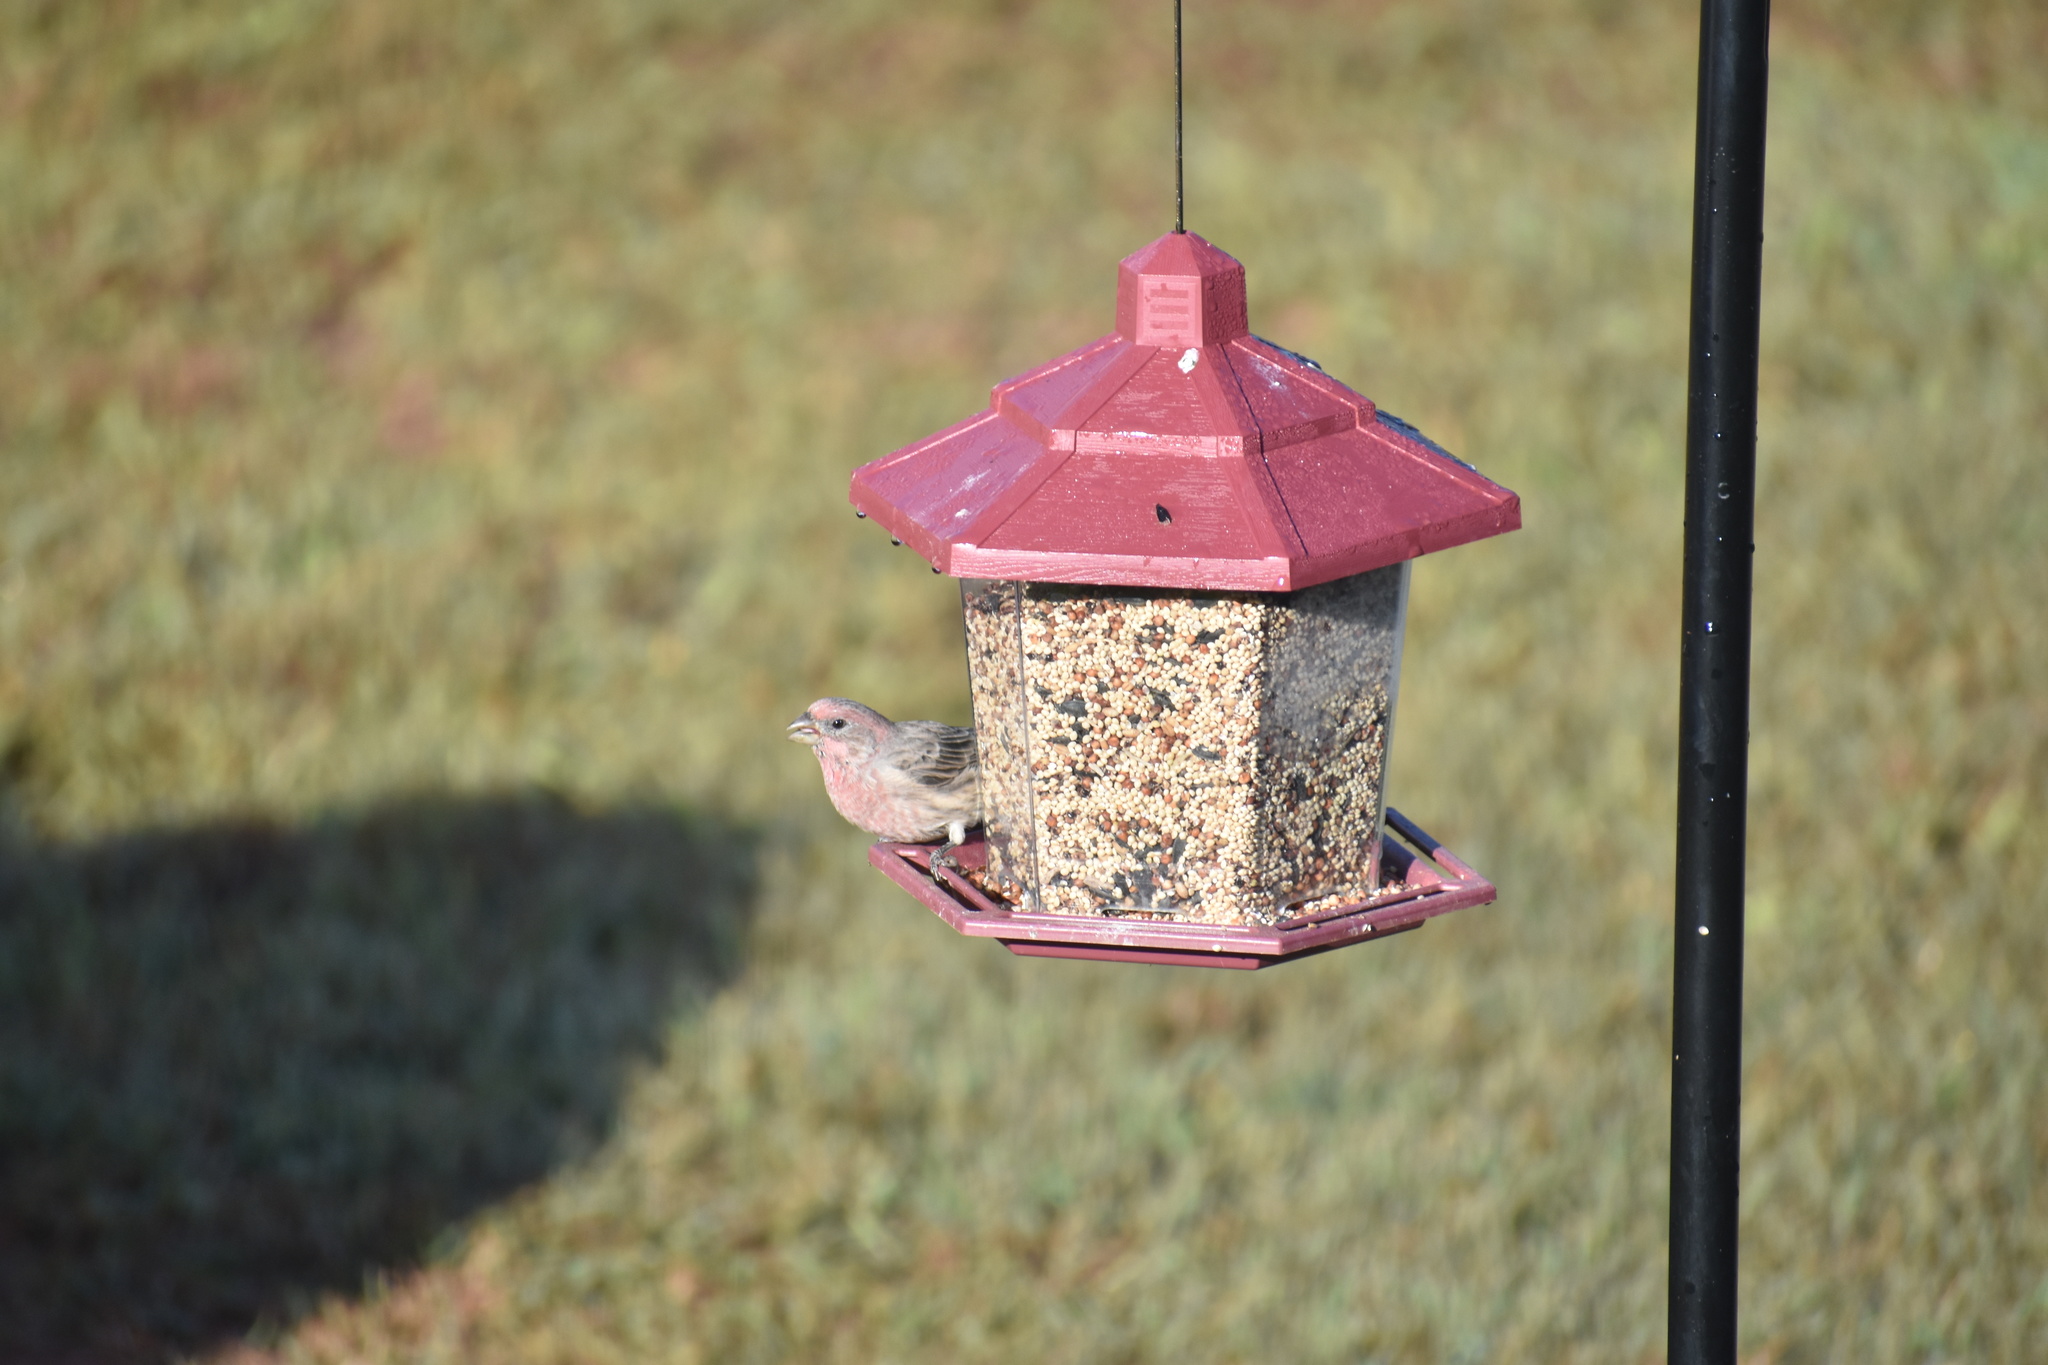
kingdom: Animalia
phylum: Chordata
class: Aves
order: Passeriformes
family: Fringillidae
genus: Haemorhous
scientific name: Haemorhous mexicanus
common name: House finch
